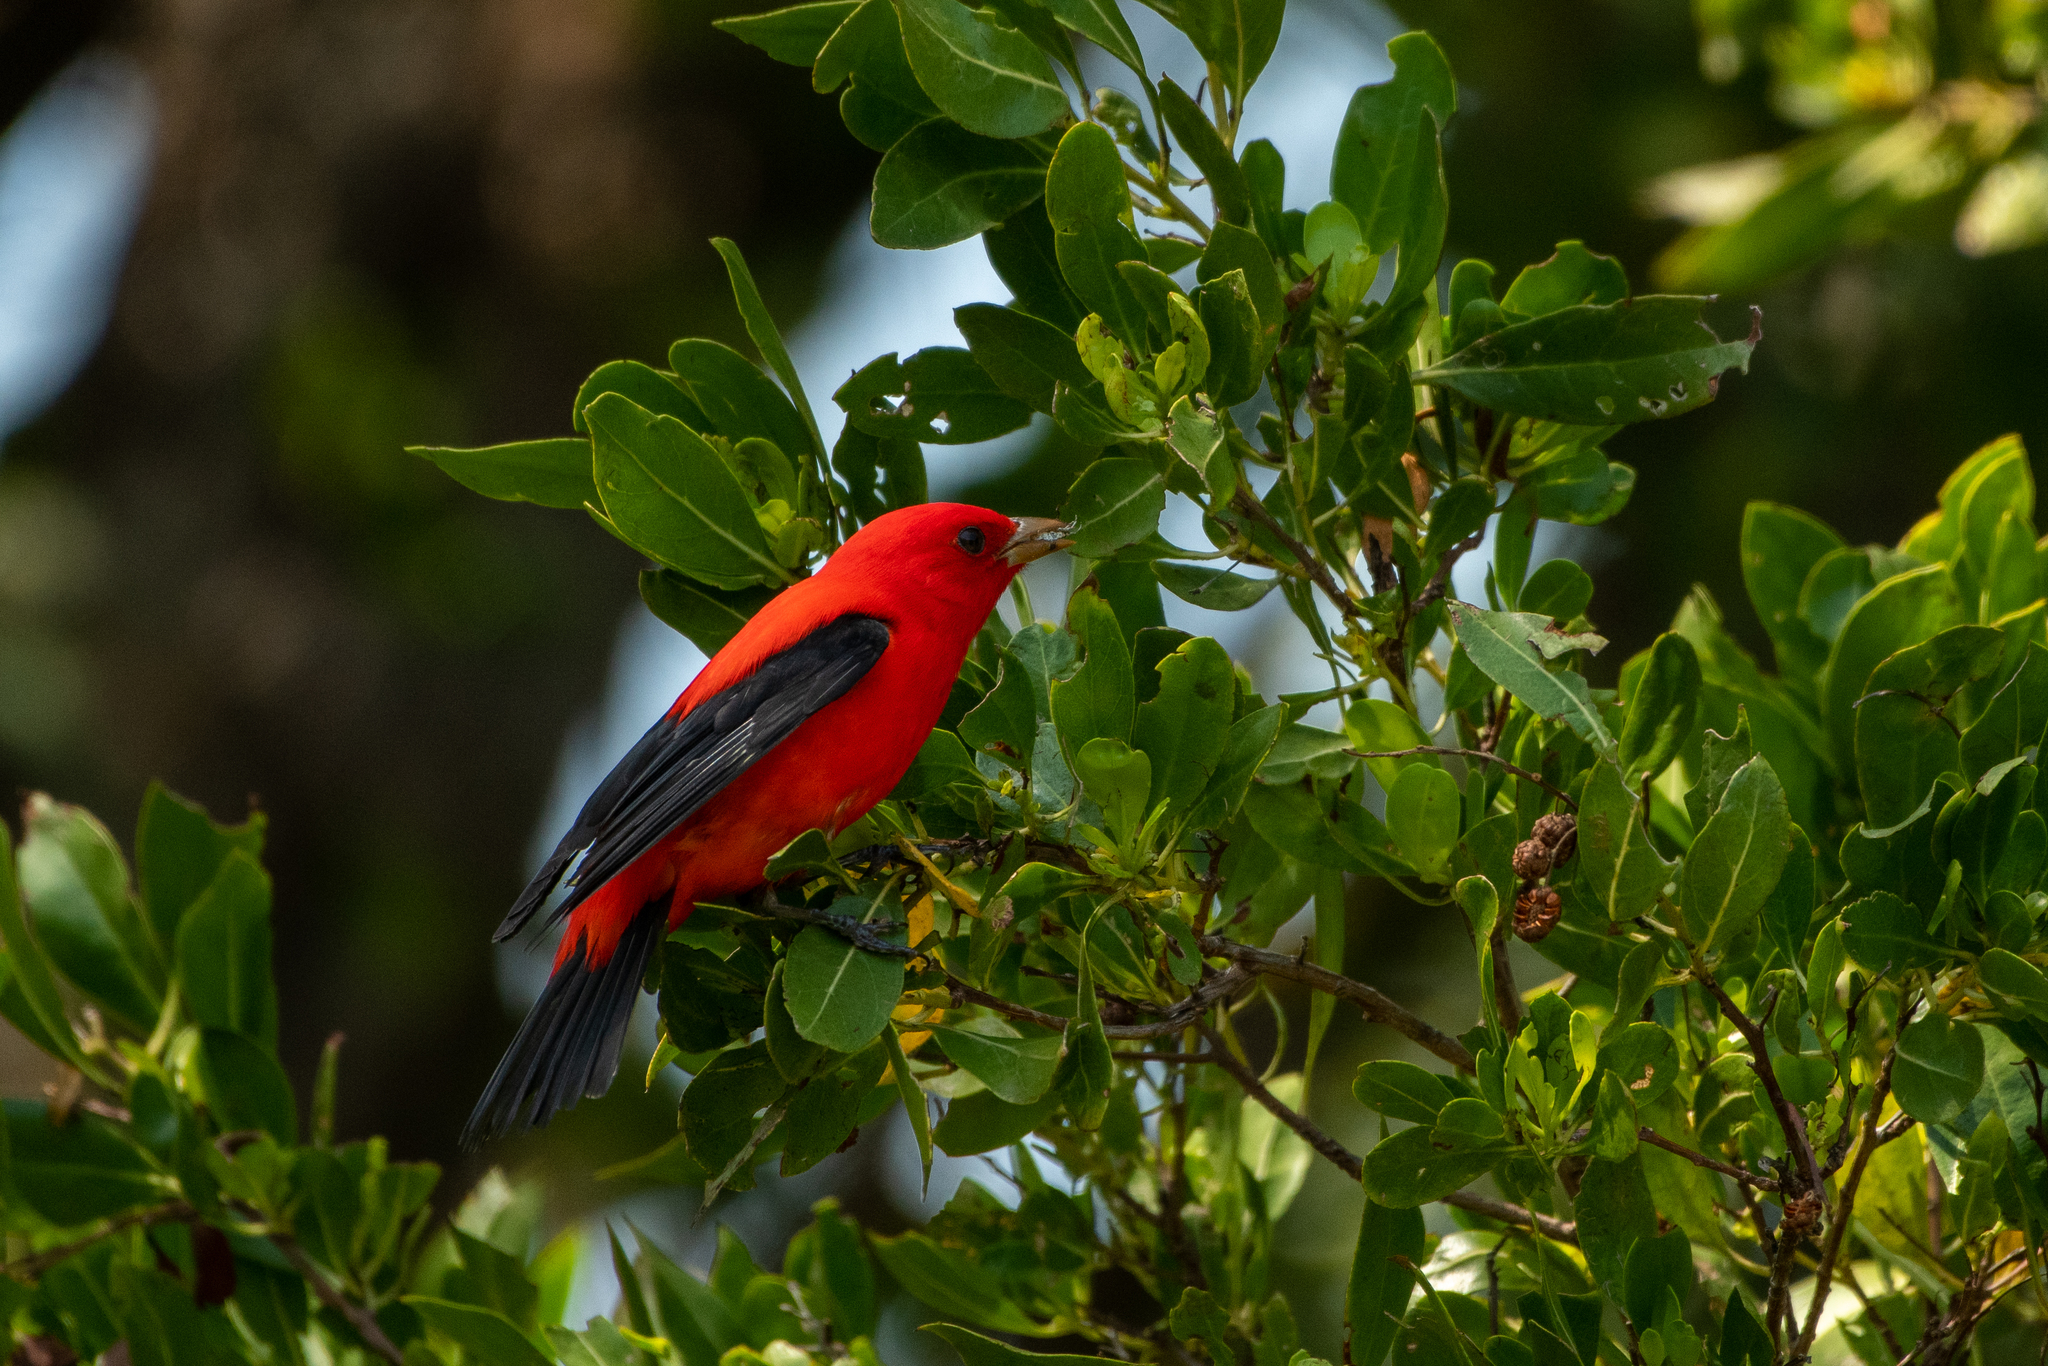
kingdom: Animalia
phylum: Chordata
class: Aves
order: Passeriformes
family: Cardinalidae
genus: Piranga
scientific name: Piranga olivacea
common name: Scarlet tanager
